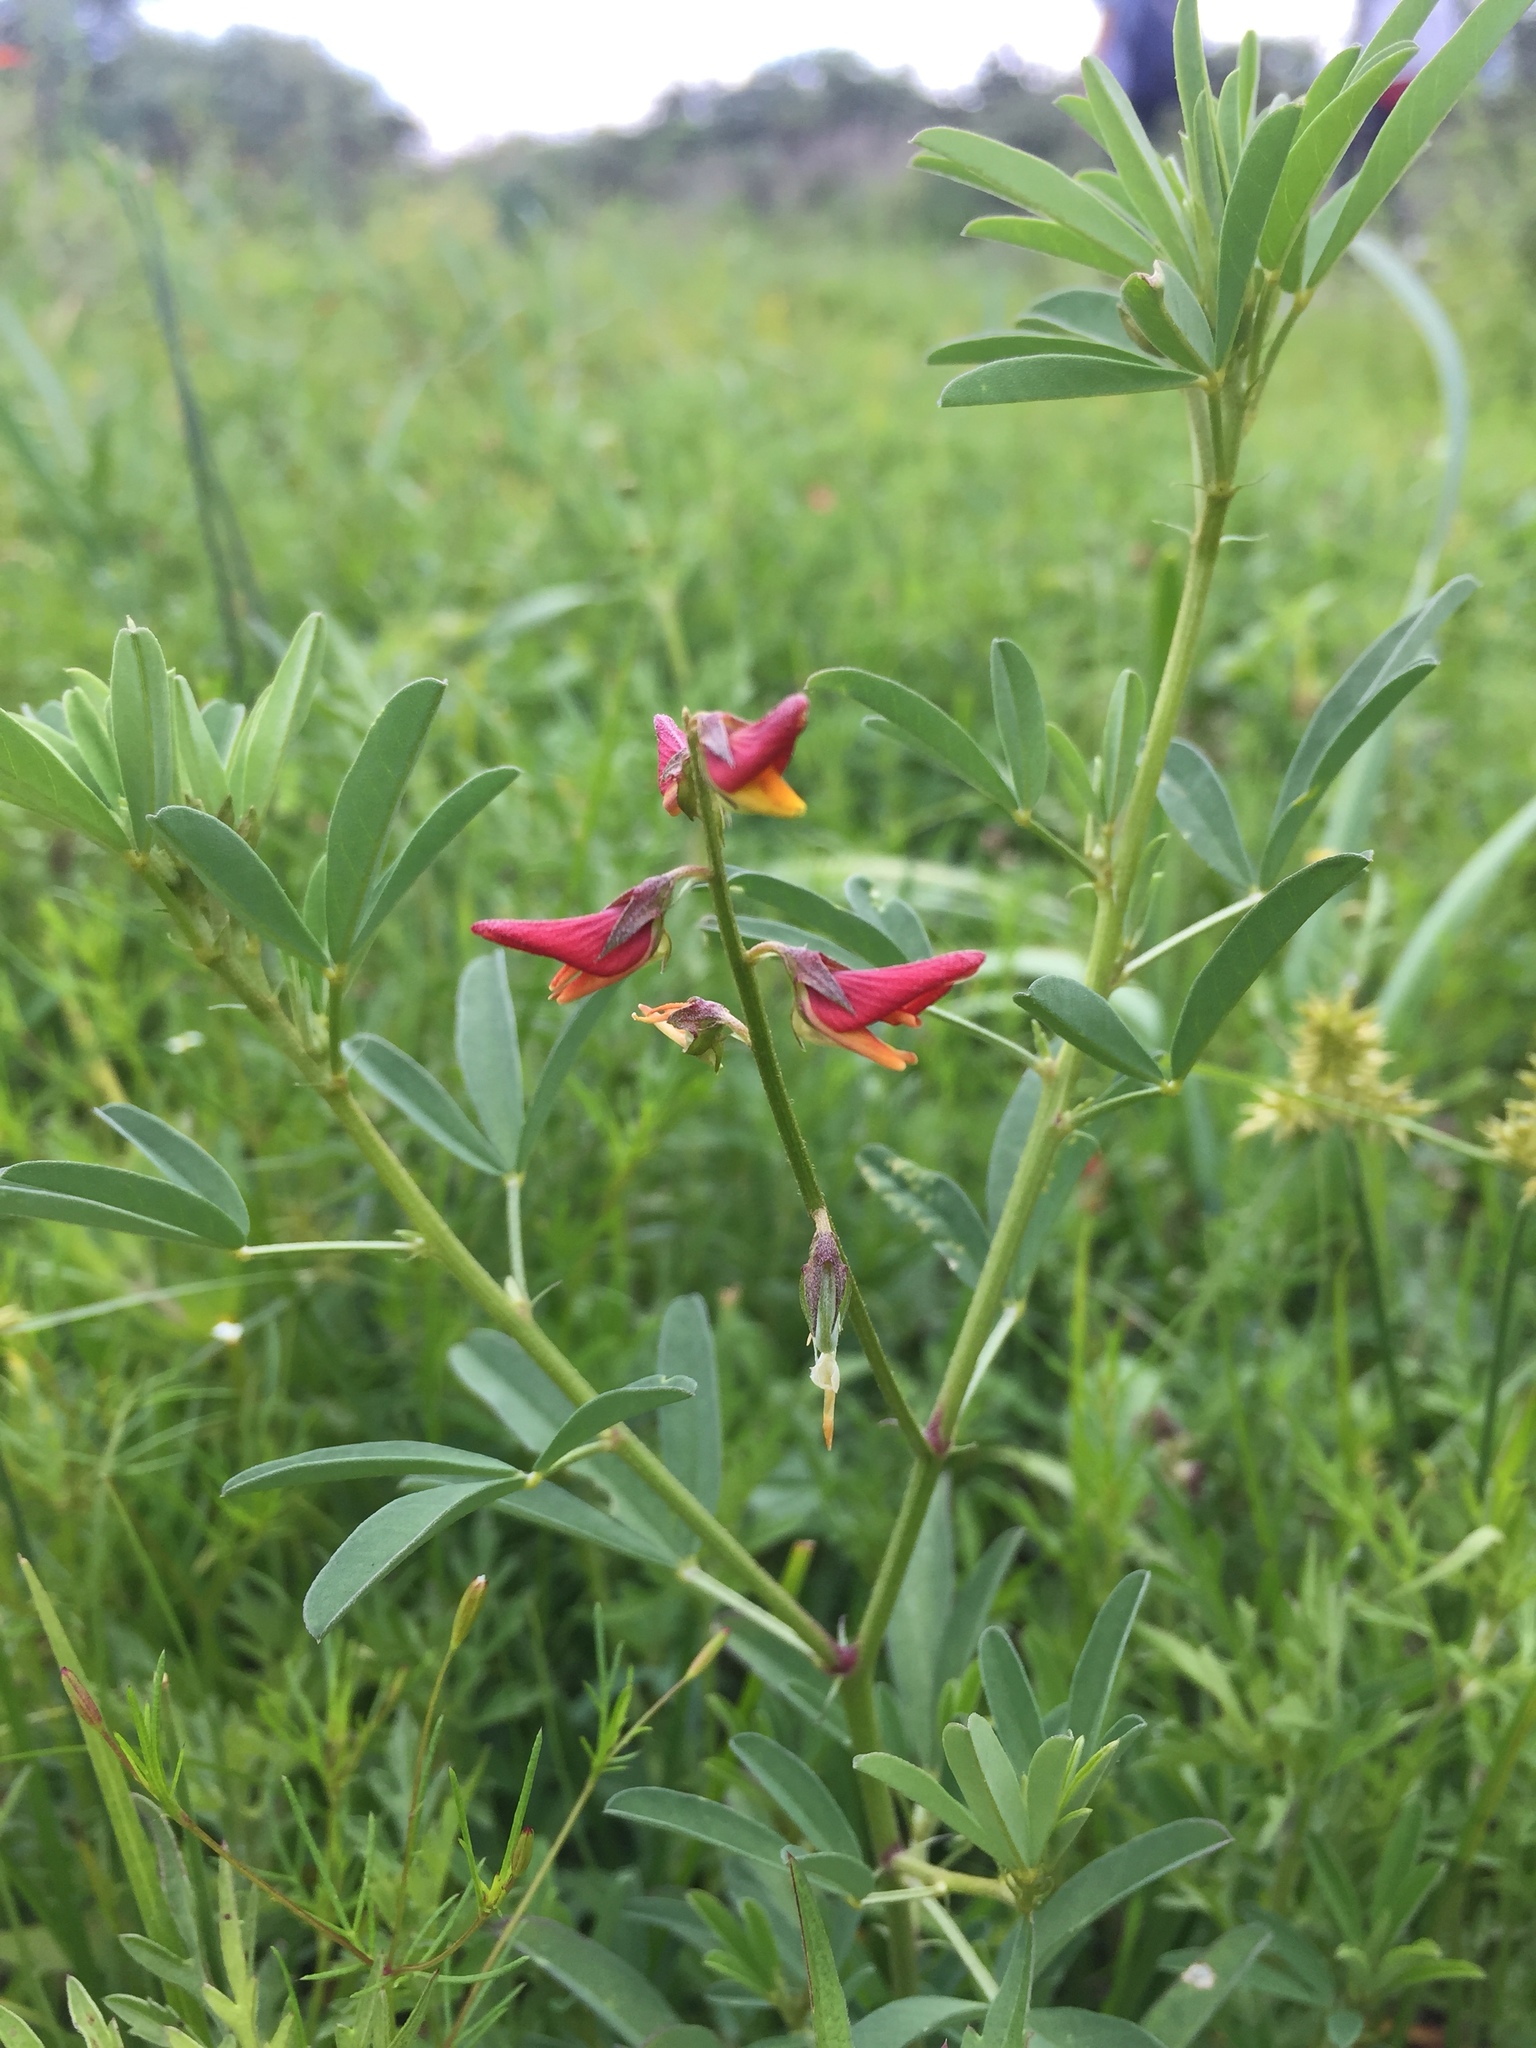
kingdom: Plantae
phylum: Tracheophyta
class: Magnoliopsida
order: Fabales
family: Fabaceae
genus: Crotalaria
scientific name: Crotalaria pumila
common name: Low rattlebox
